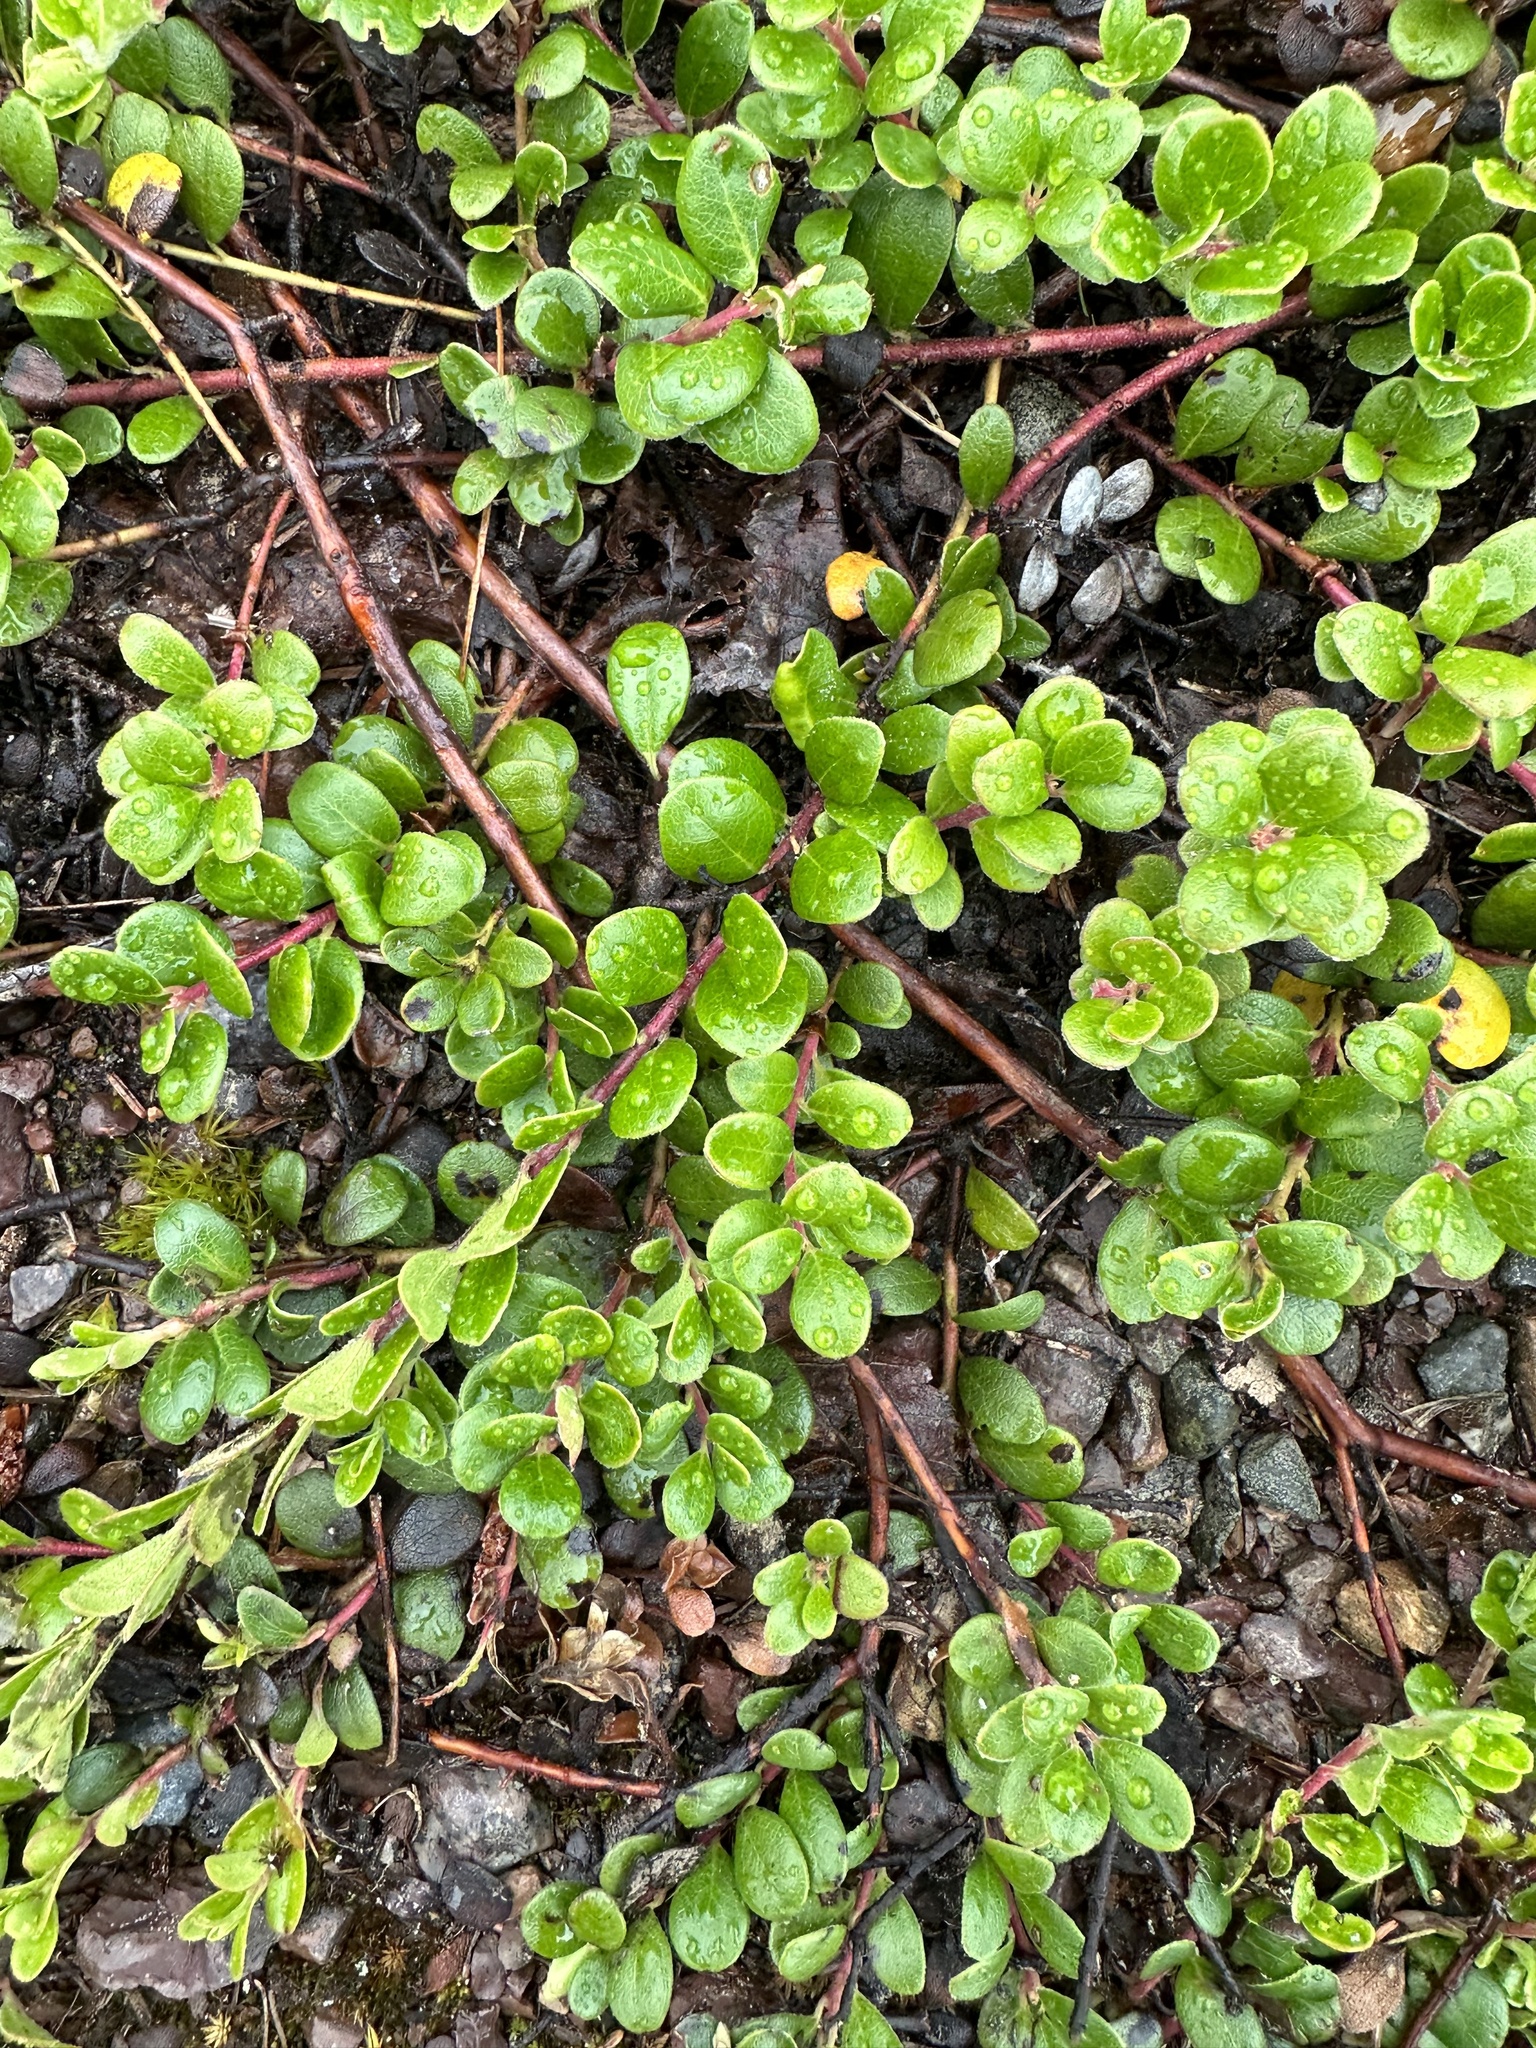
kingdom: Plantae
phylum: Tracheophyta
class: Magnoliopsida
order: Ericales
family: Ericaceae
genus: Arctostaphylos
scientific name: Arctostaphylos uva-ursi
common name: Bearberry
